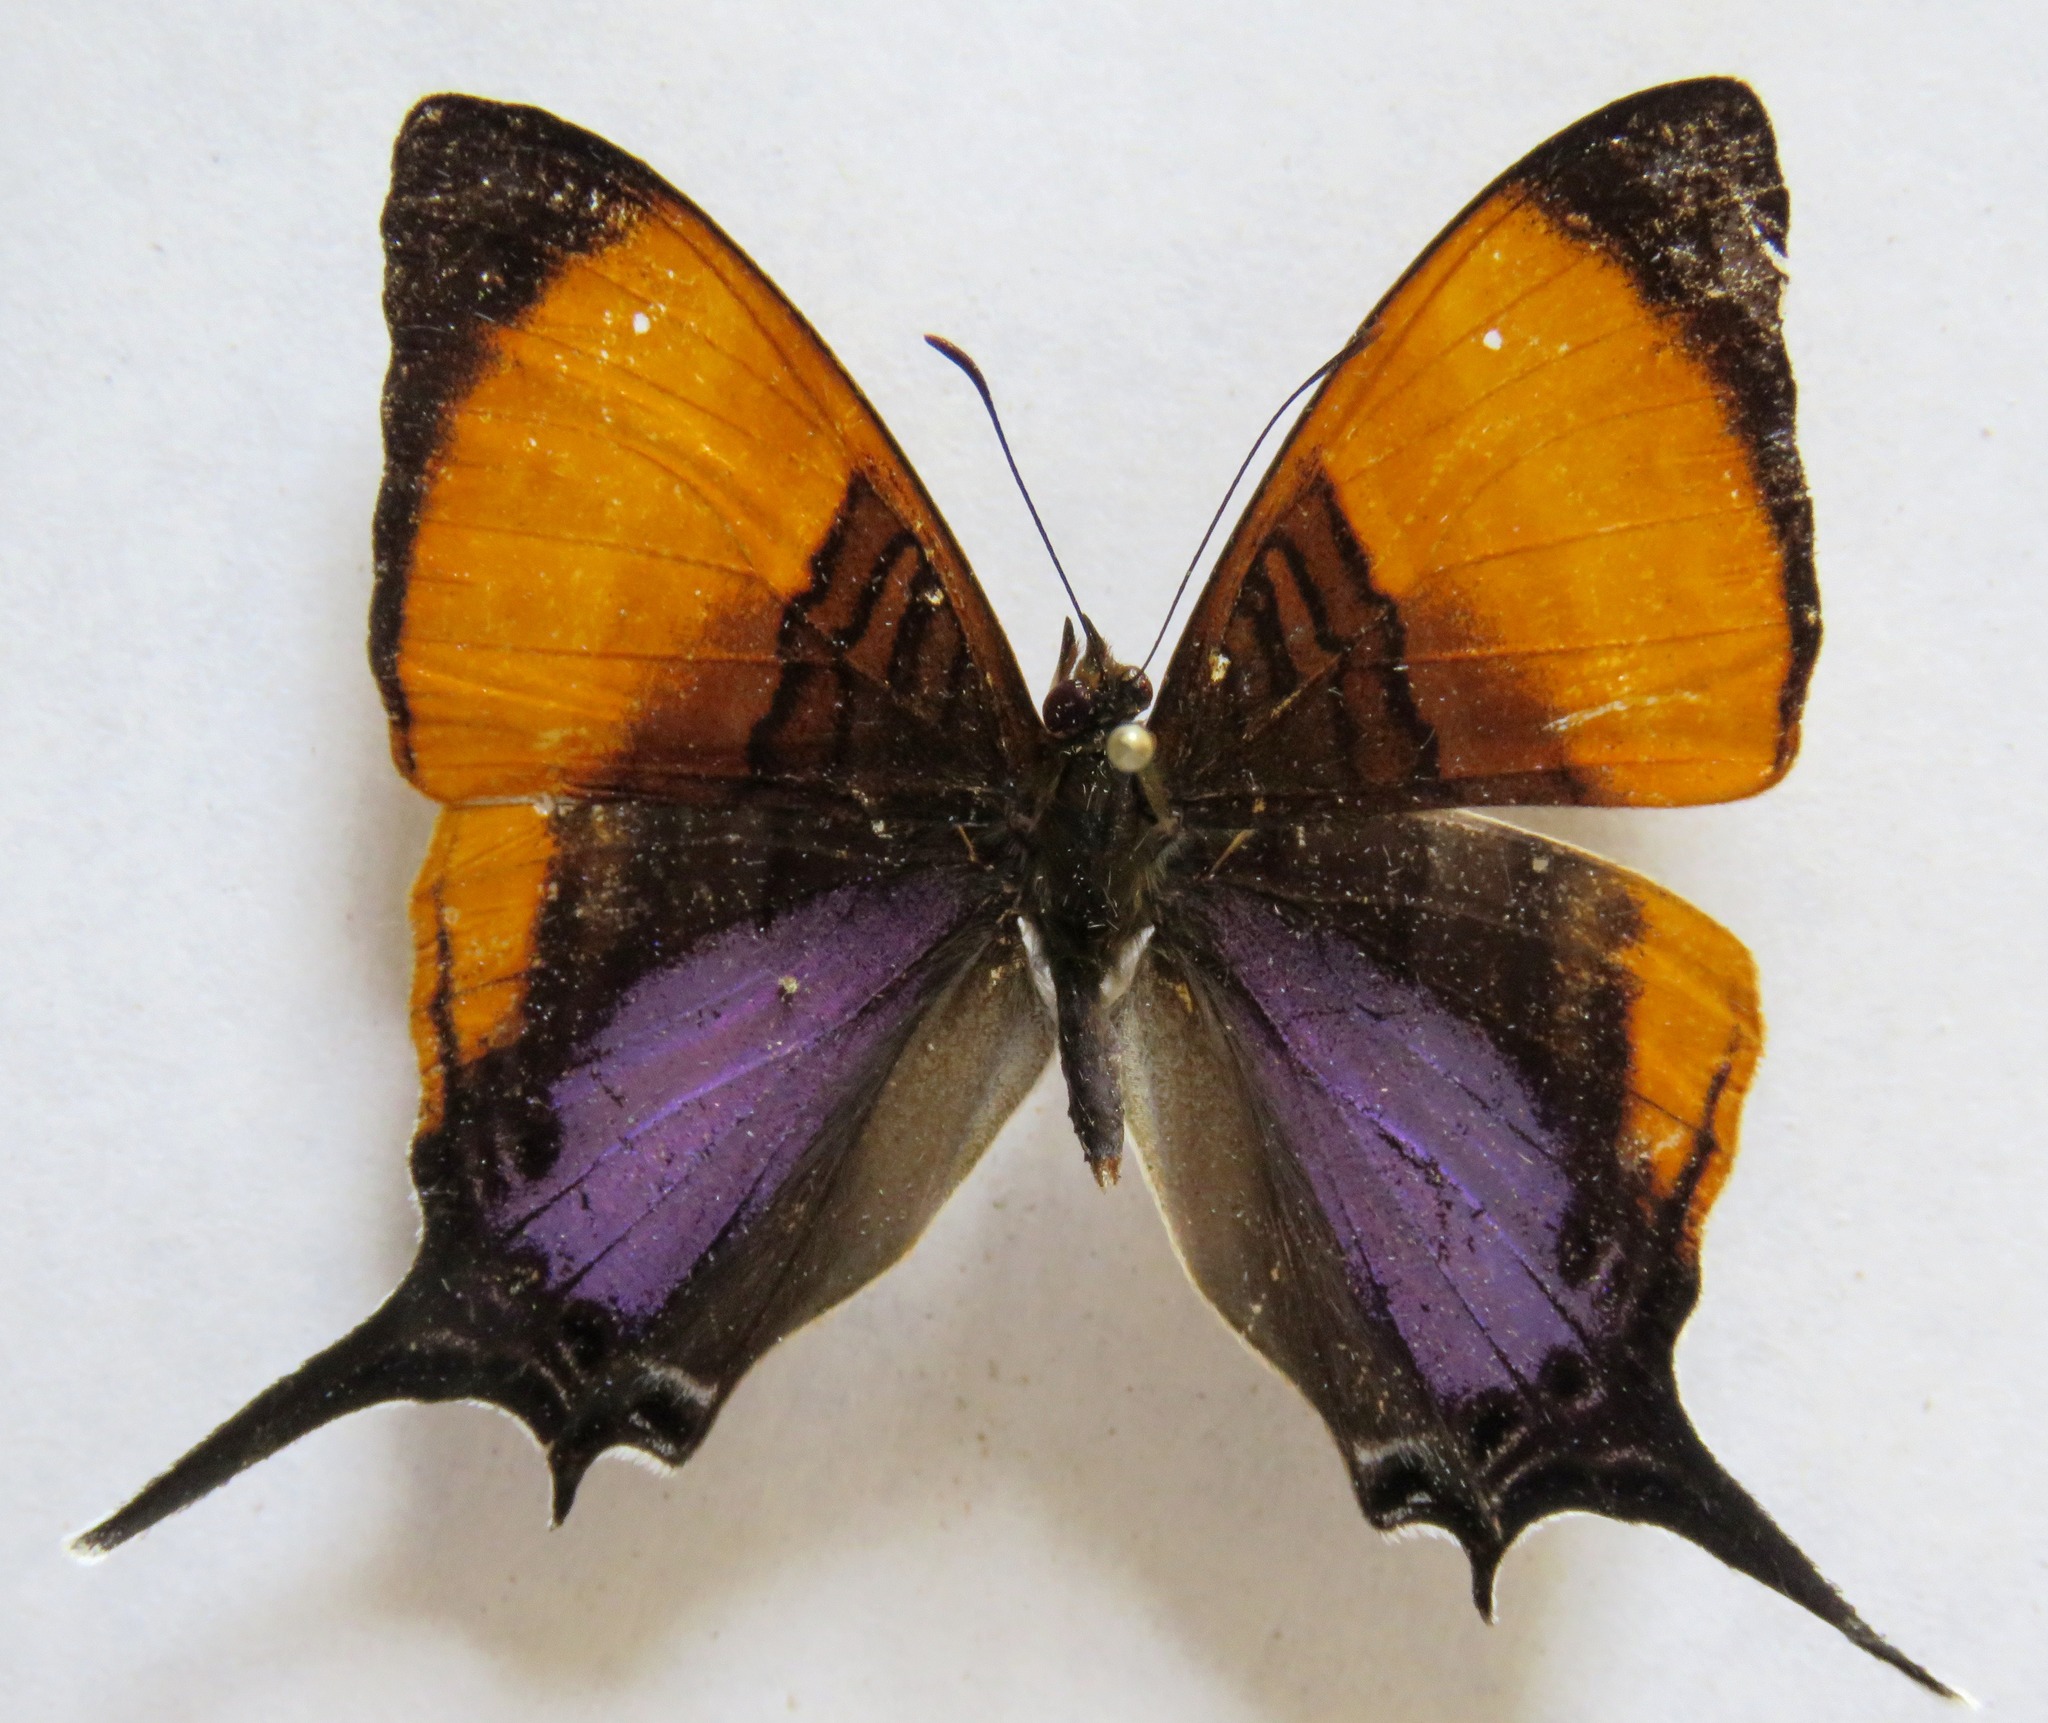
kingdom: Animalia
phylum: Arthropoda
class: Insecta
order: Lepidoptera
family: Nymphalidae
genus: Marpesia
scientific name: Marpesia marcella
